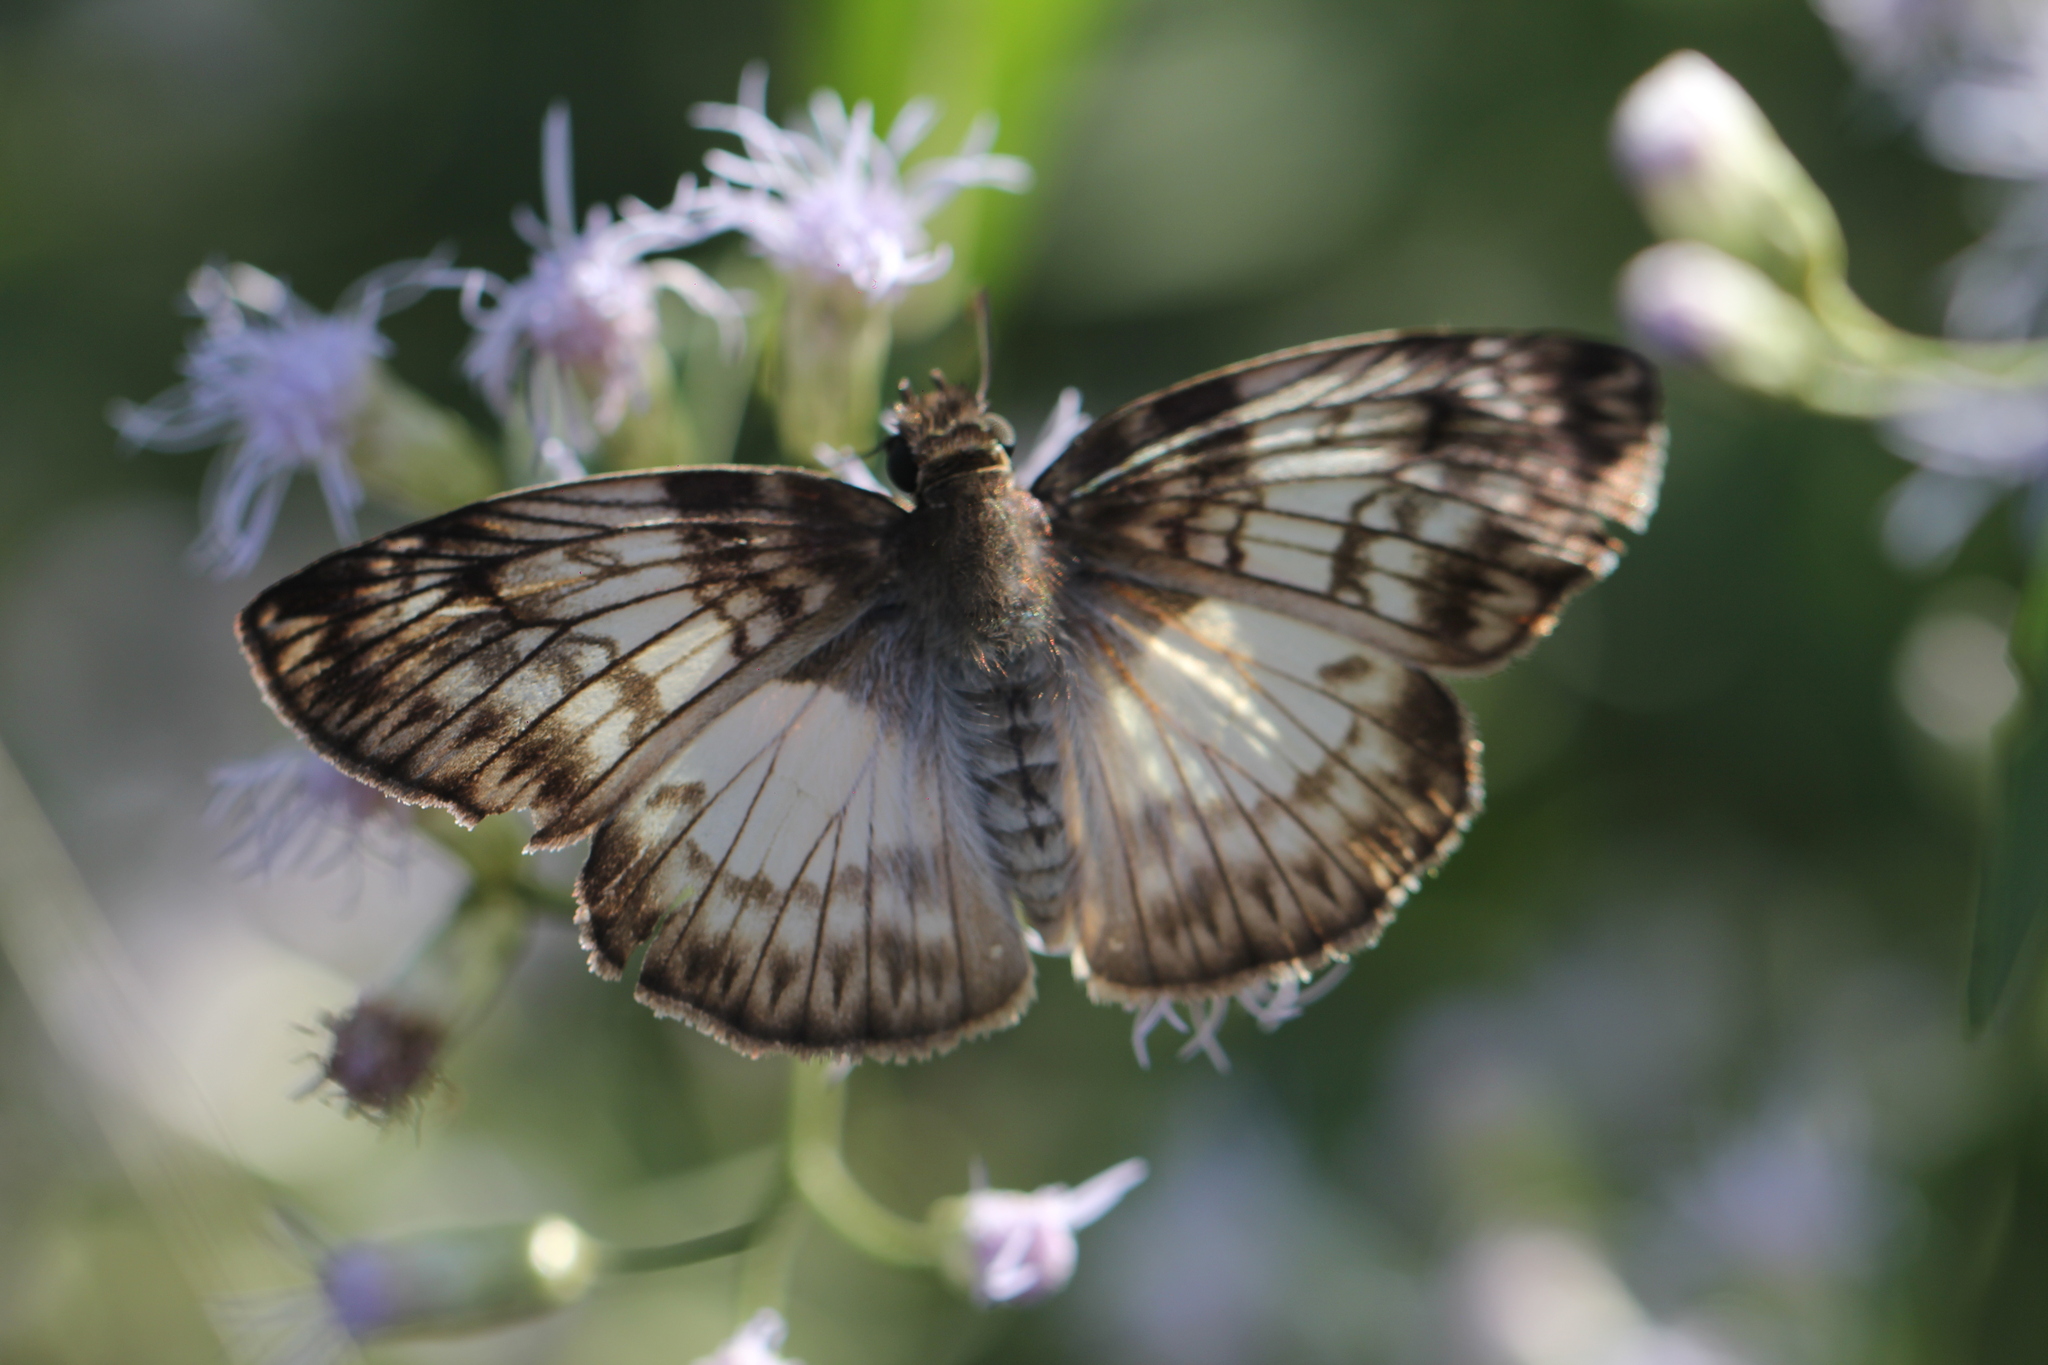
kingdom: Animalia
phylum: Arthropoda
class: Insecta
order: Lepidoptera
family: Hesperiidae
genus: Mylon
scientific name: Mylon maimon
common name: Common mylon
